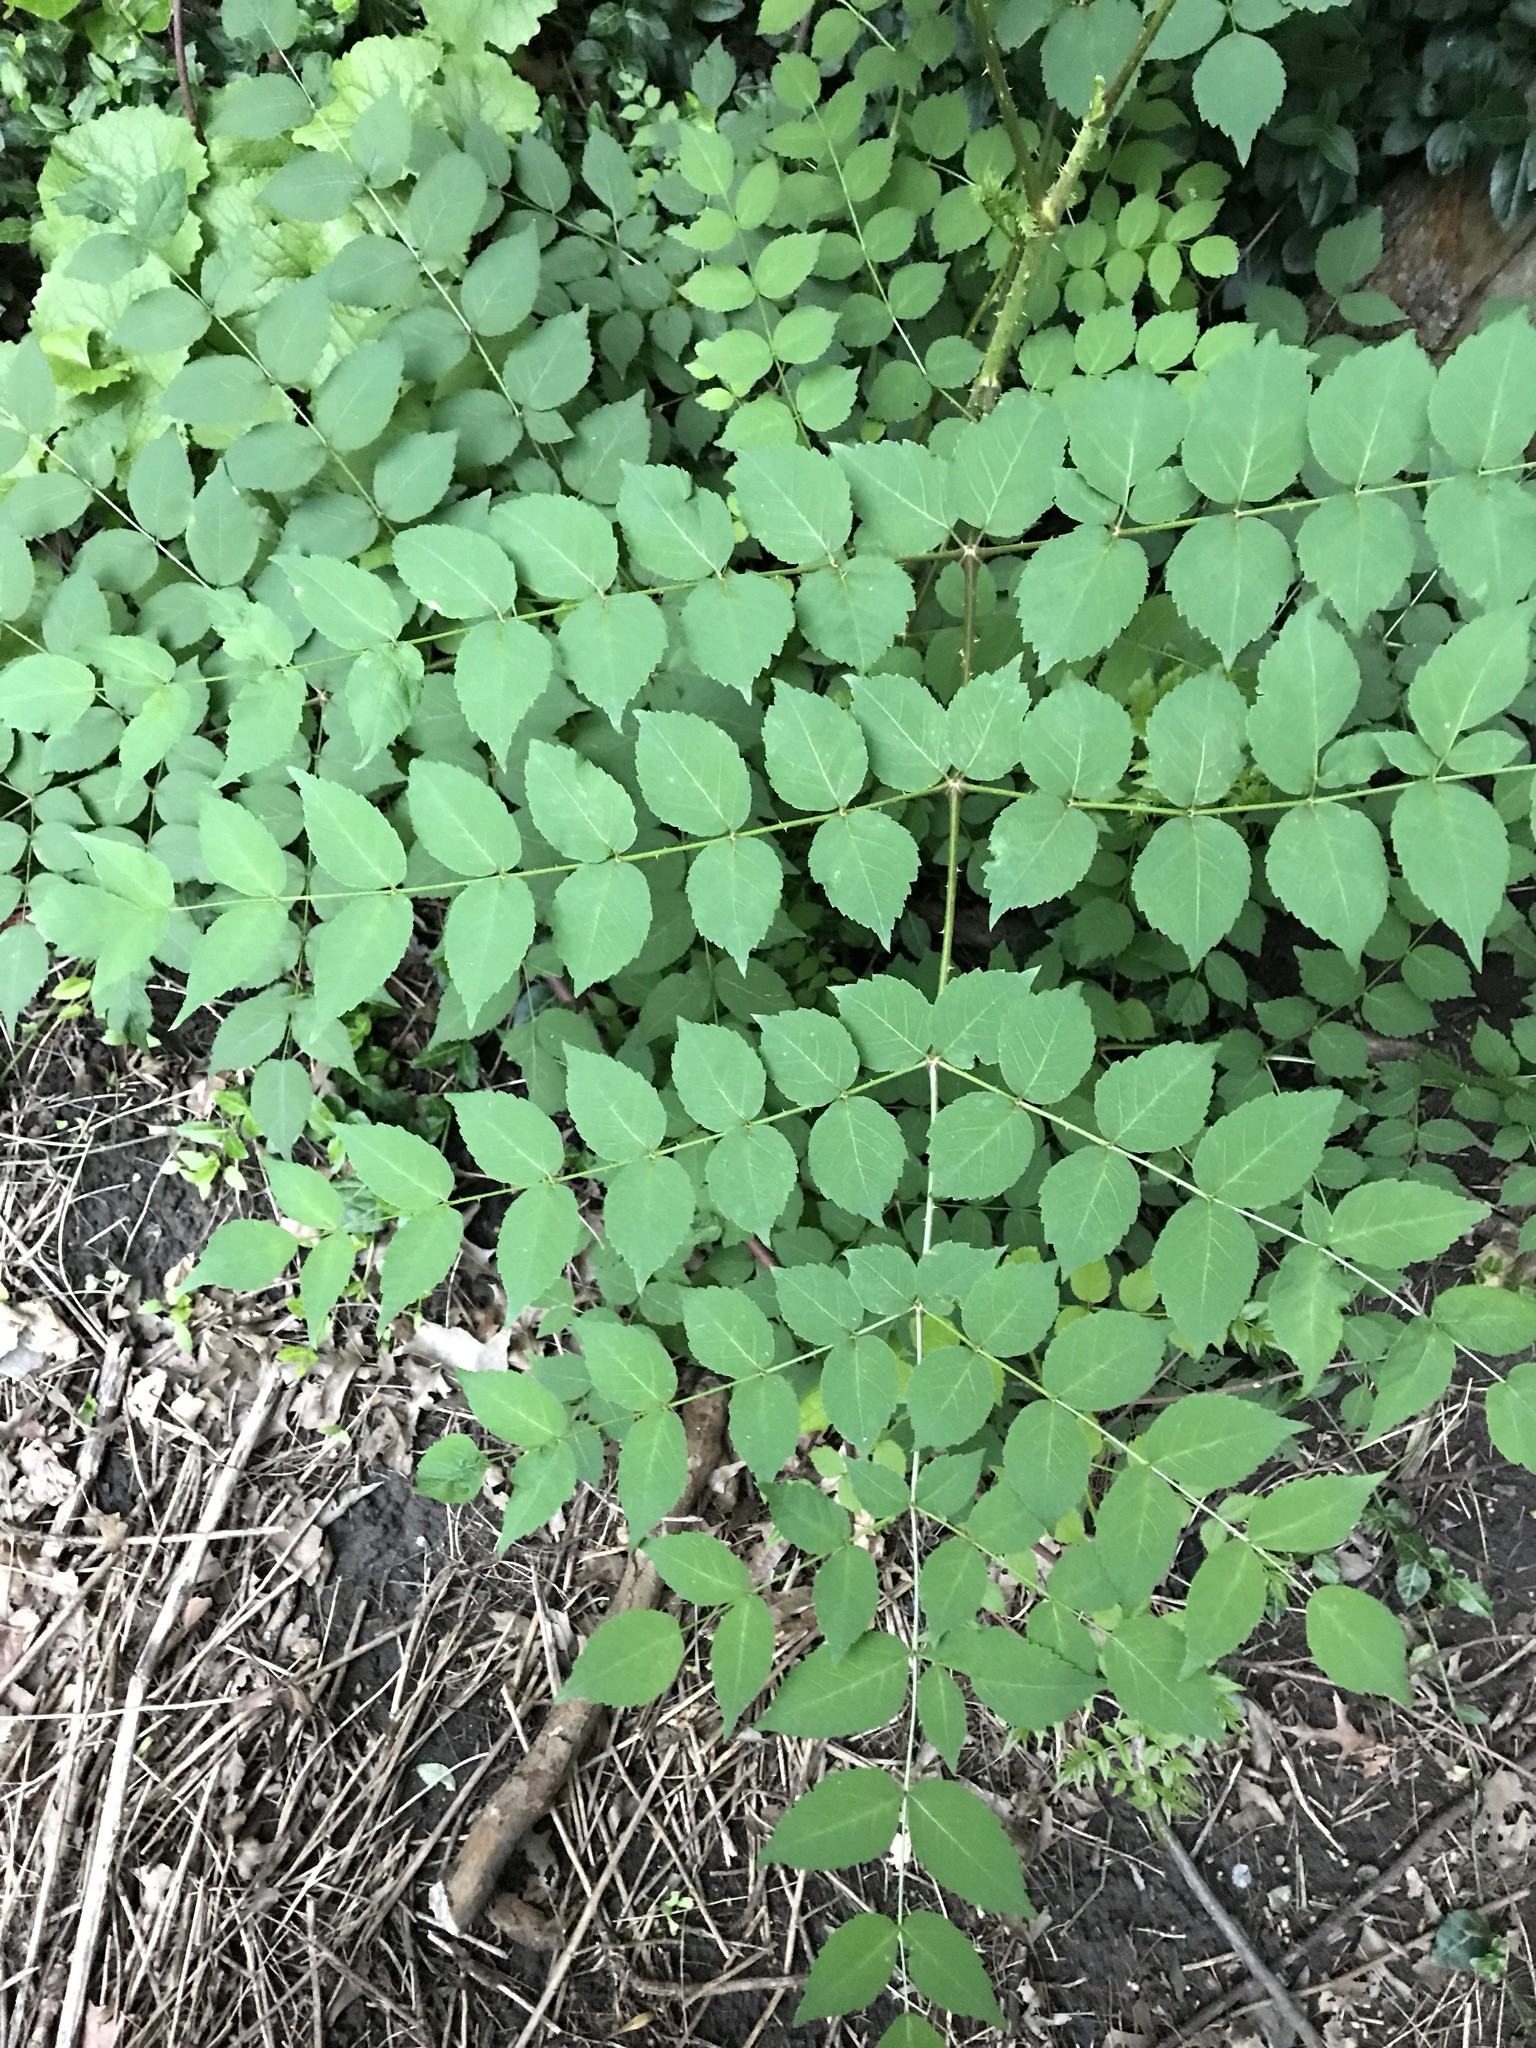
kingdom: Plantae
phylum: Tracheophyta
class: Magnoliopsida
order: Apiales
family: Araliaceae
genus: Aralia
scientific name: Aralia elata
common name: Japanese angelica-tree
